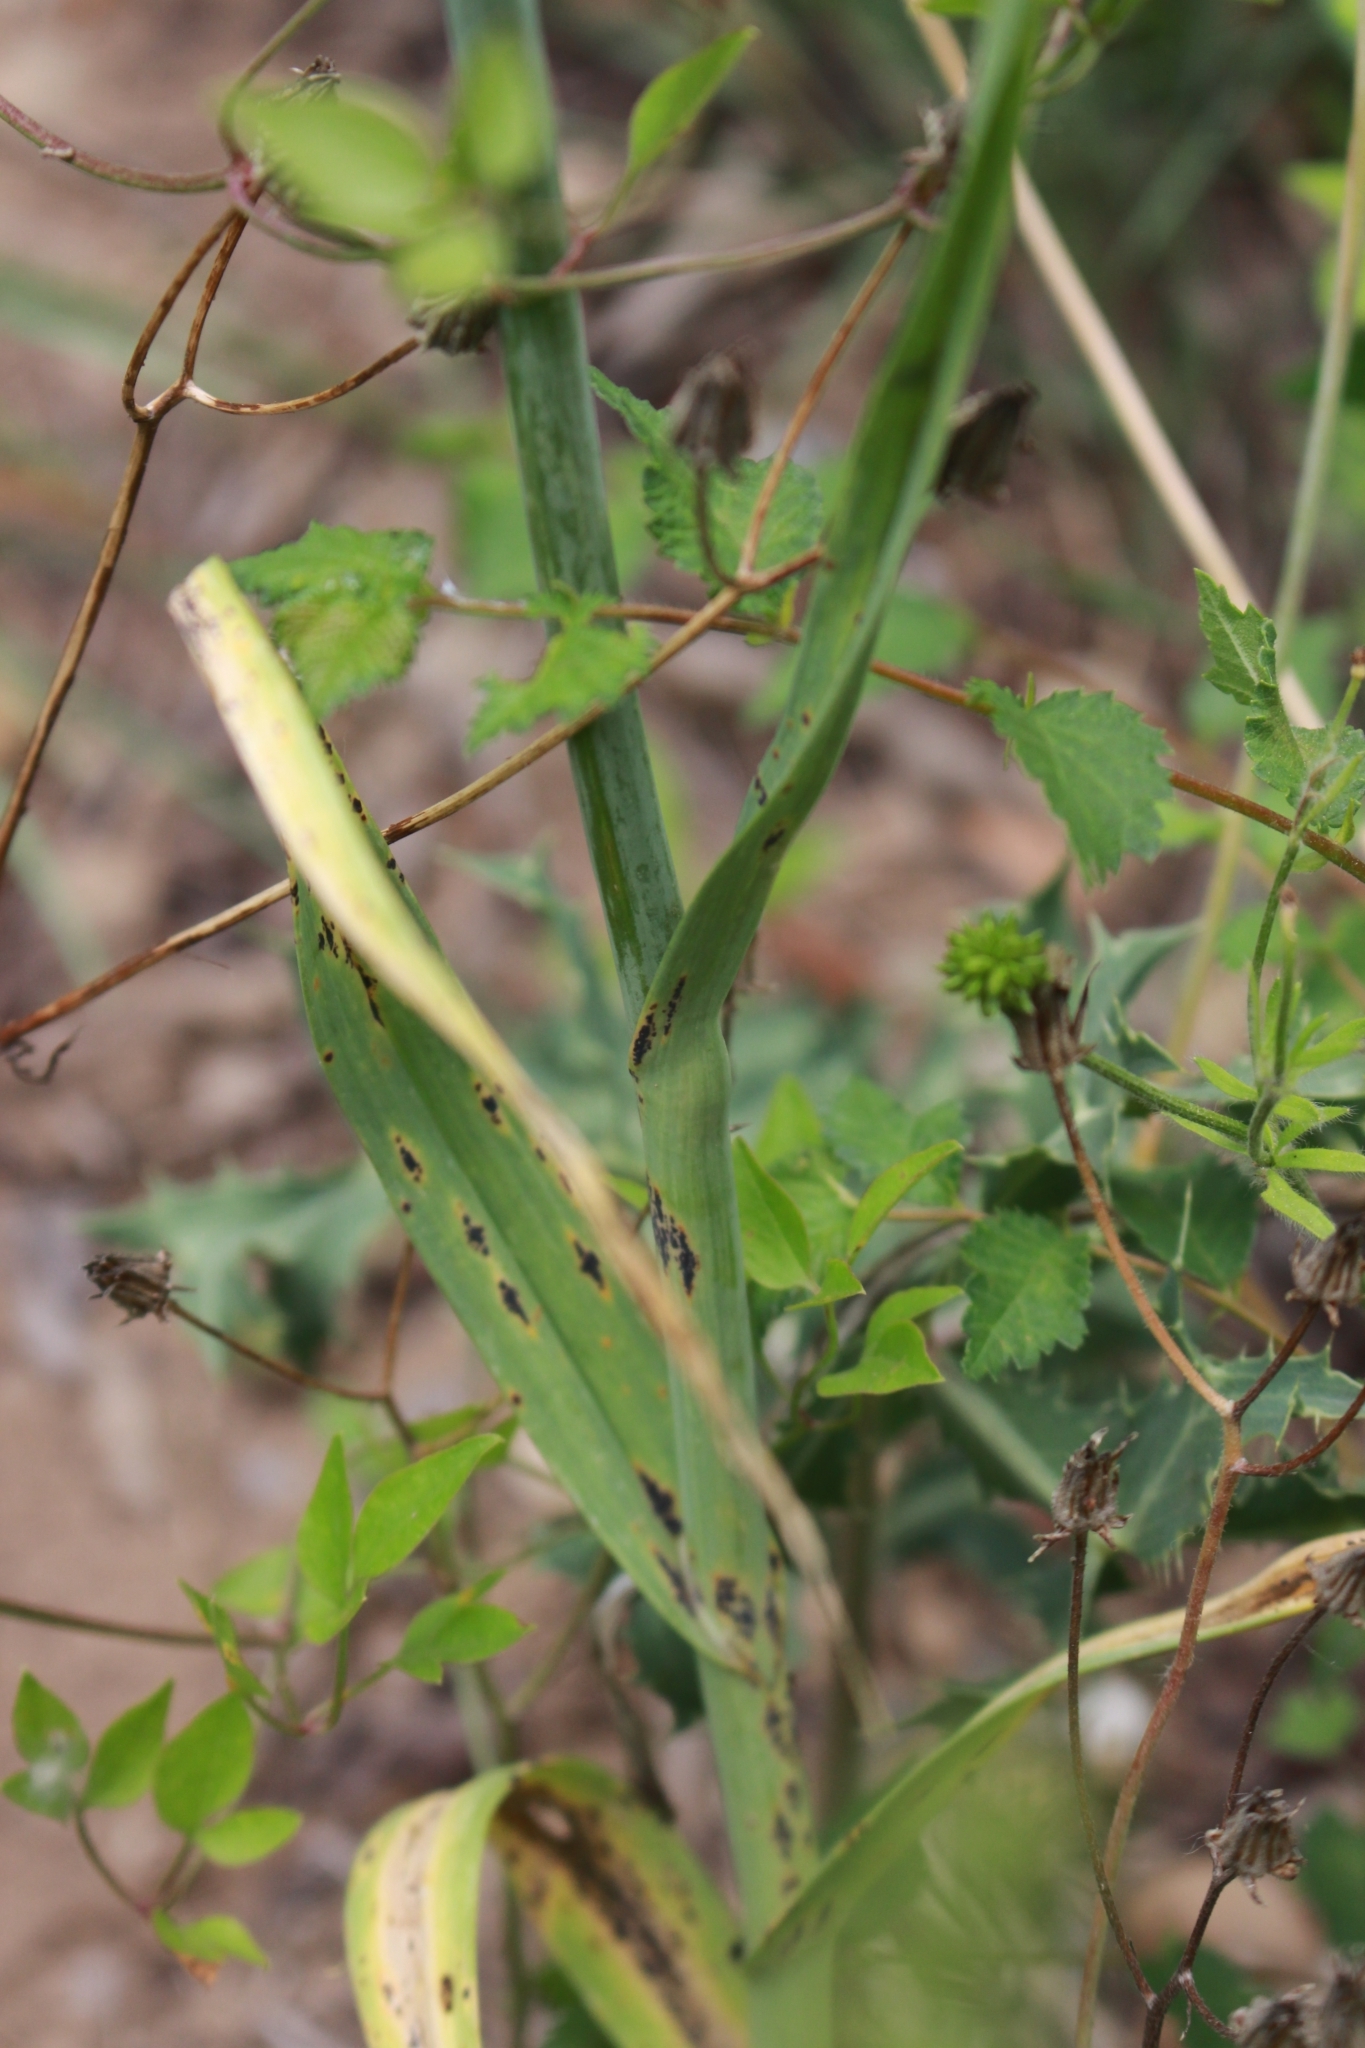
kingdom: Plantae
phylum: Tracheophyta
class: Liliopsida
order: Asparagales
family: Amaryllidaceae
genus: Allium
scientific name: Allium ampeloprasum
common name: Wild leek
